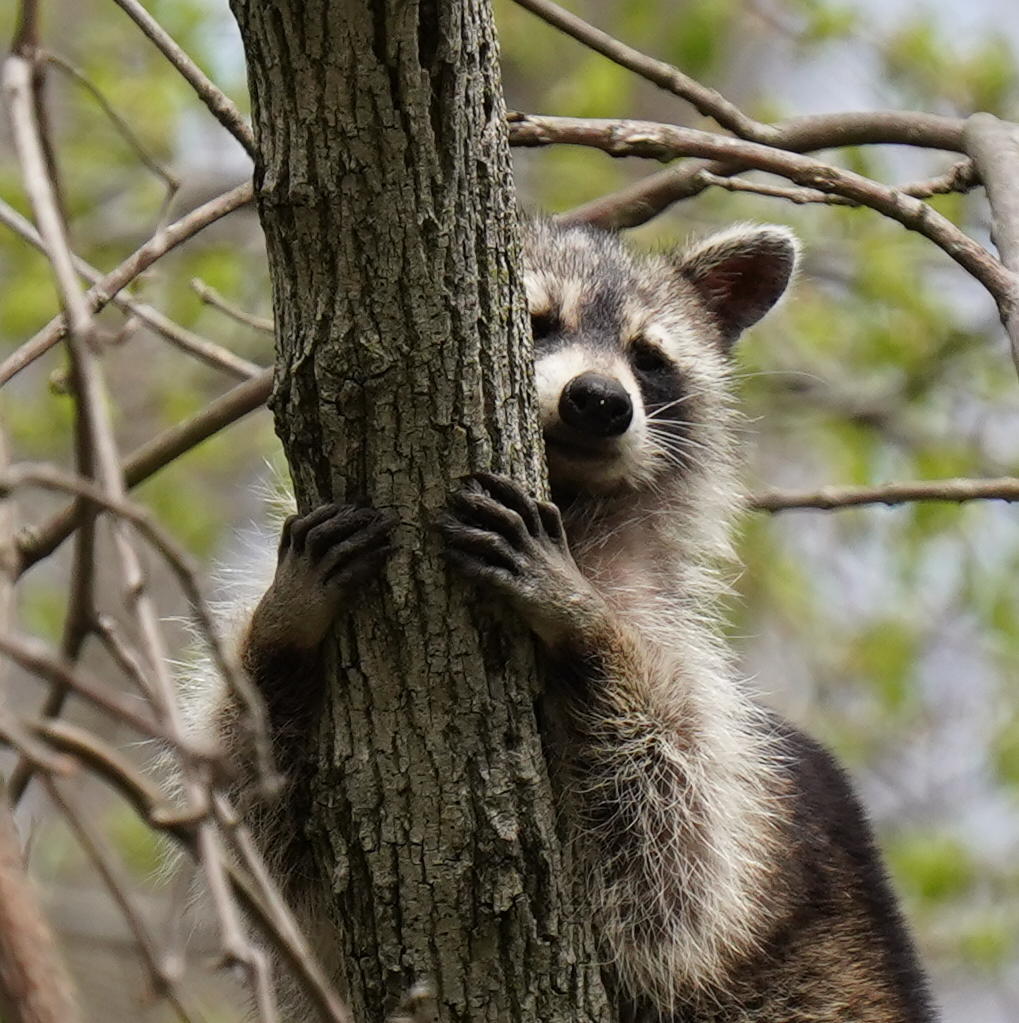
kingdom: Animalia
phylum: Chordata
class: Mammalia
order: Carnivora
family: Procyonidae
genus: Procyon
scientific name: Procyon lotor
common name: Raccoon
